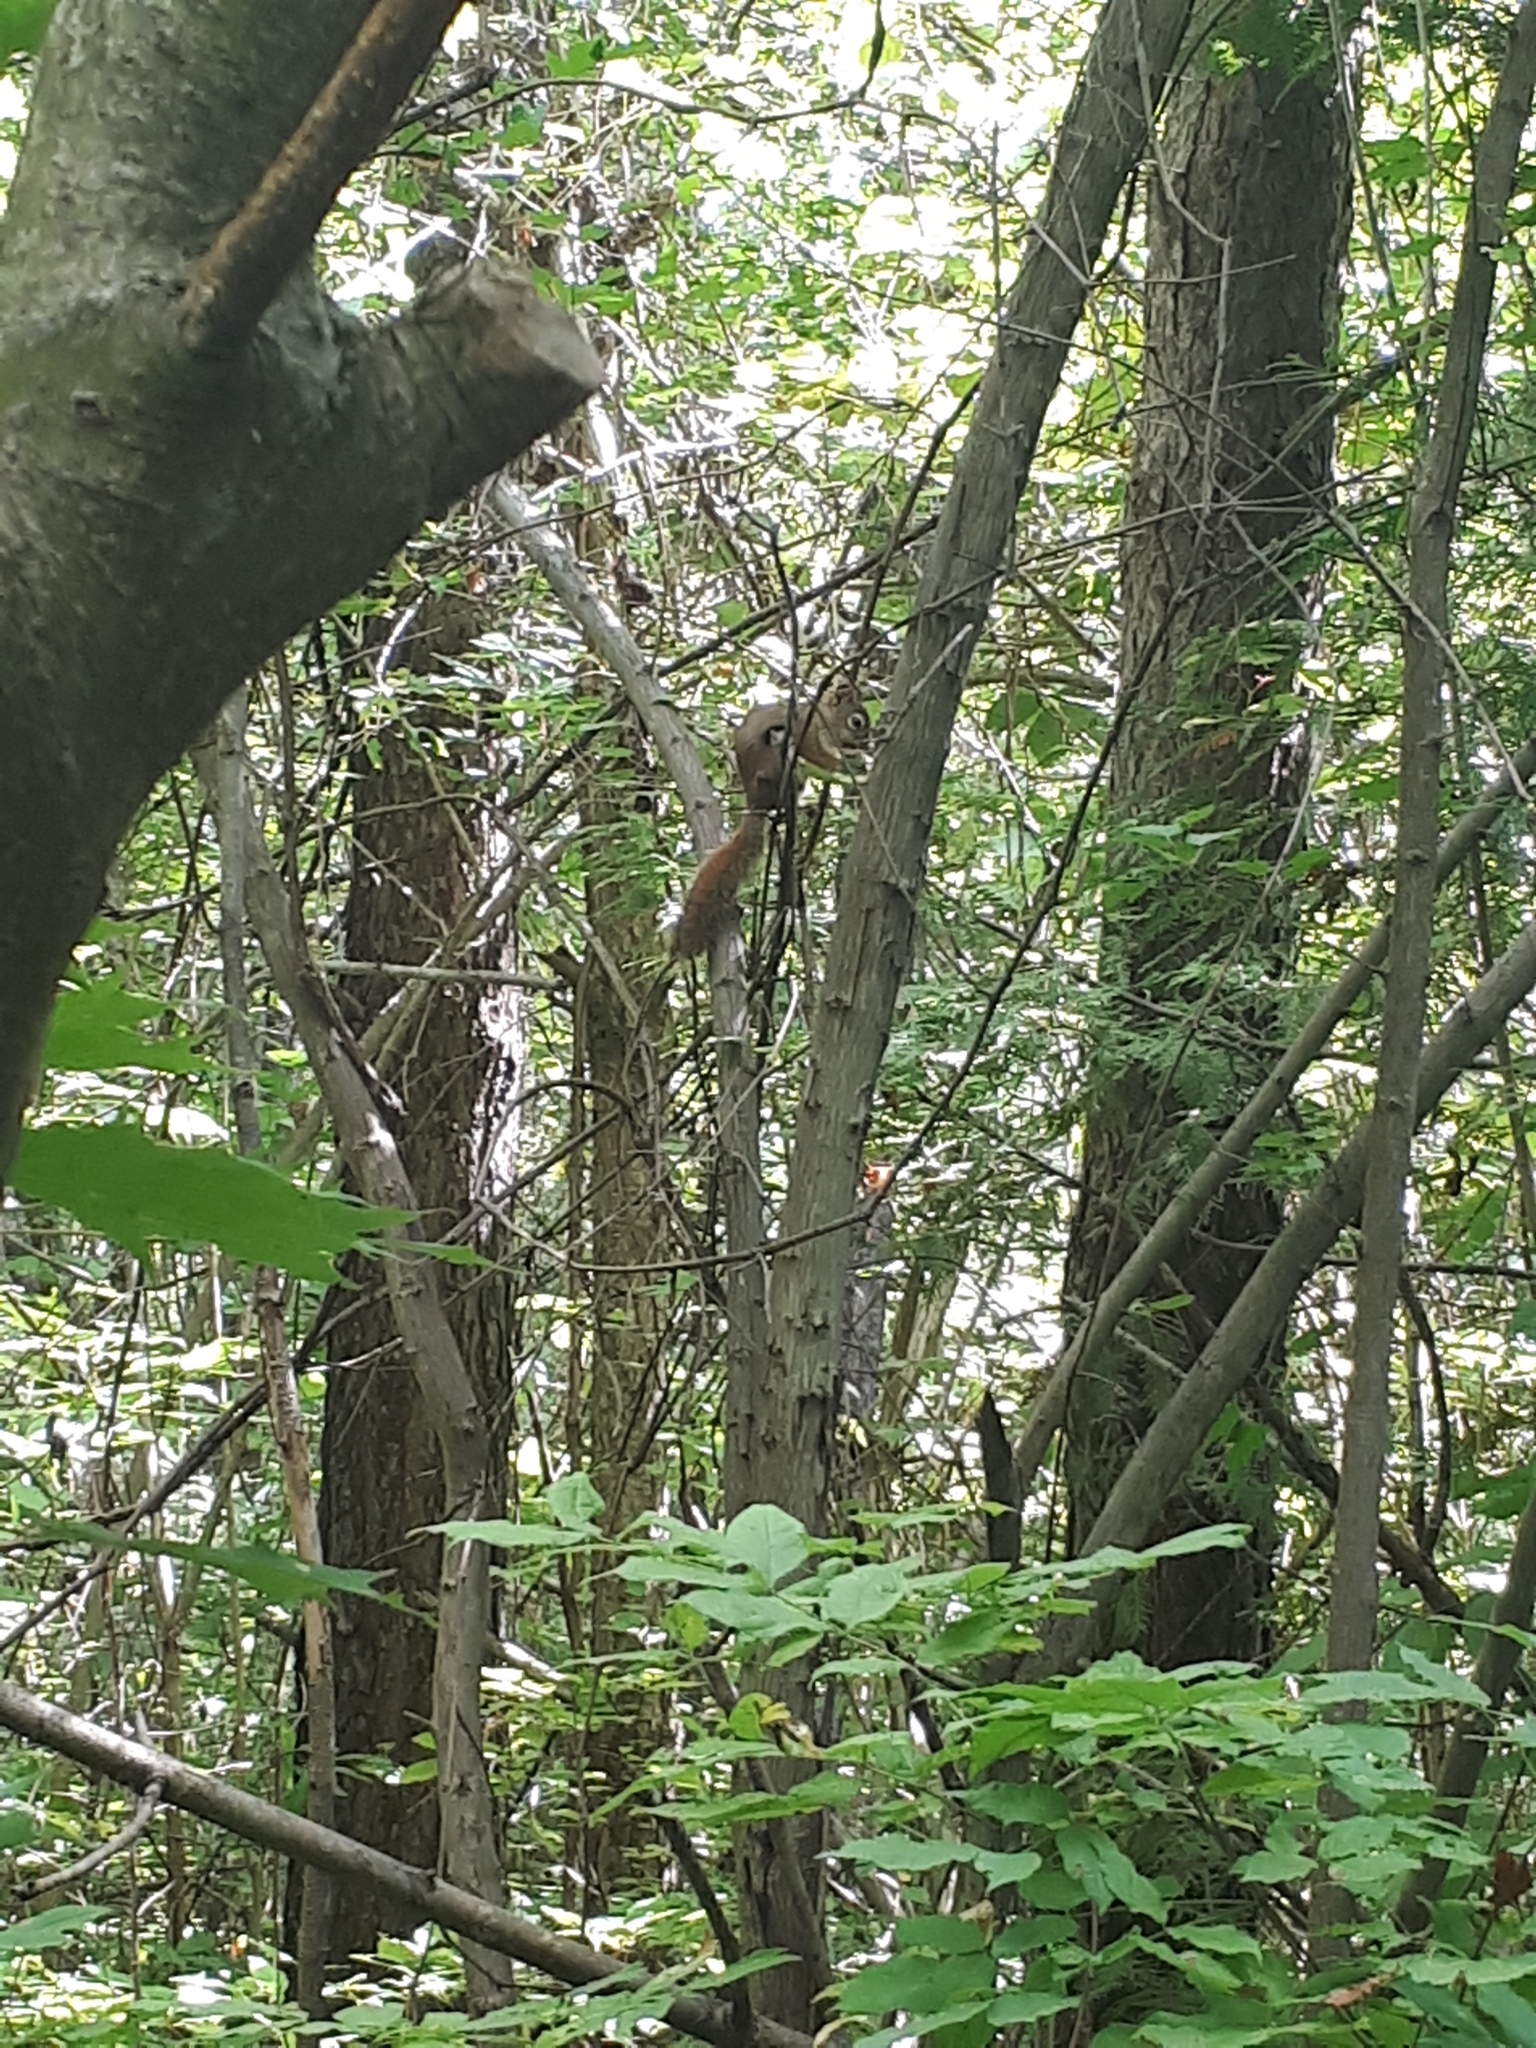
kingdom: Animalia
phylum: Chordata
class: Mammalia
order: Rodentia
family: Sciuridae
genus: Tamiasciurus
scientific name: Tamiasciurus hudsonicus
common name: Red squirrel
